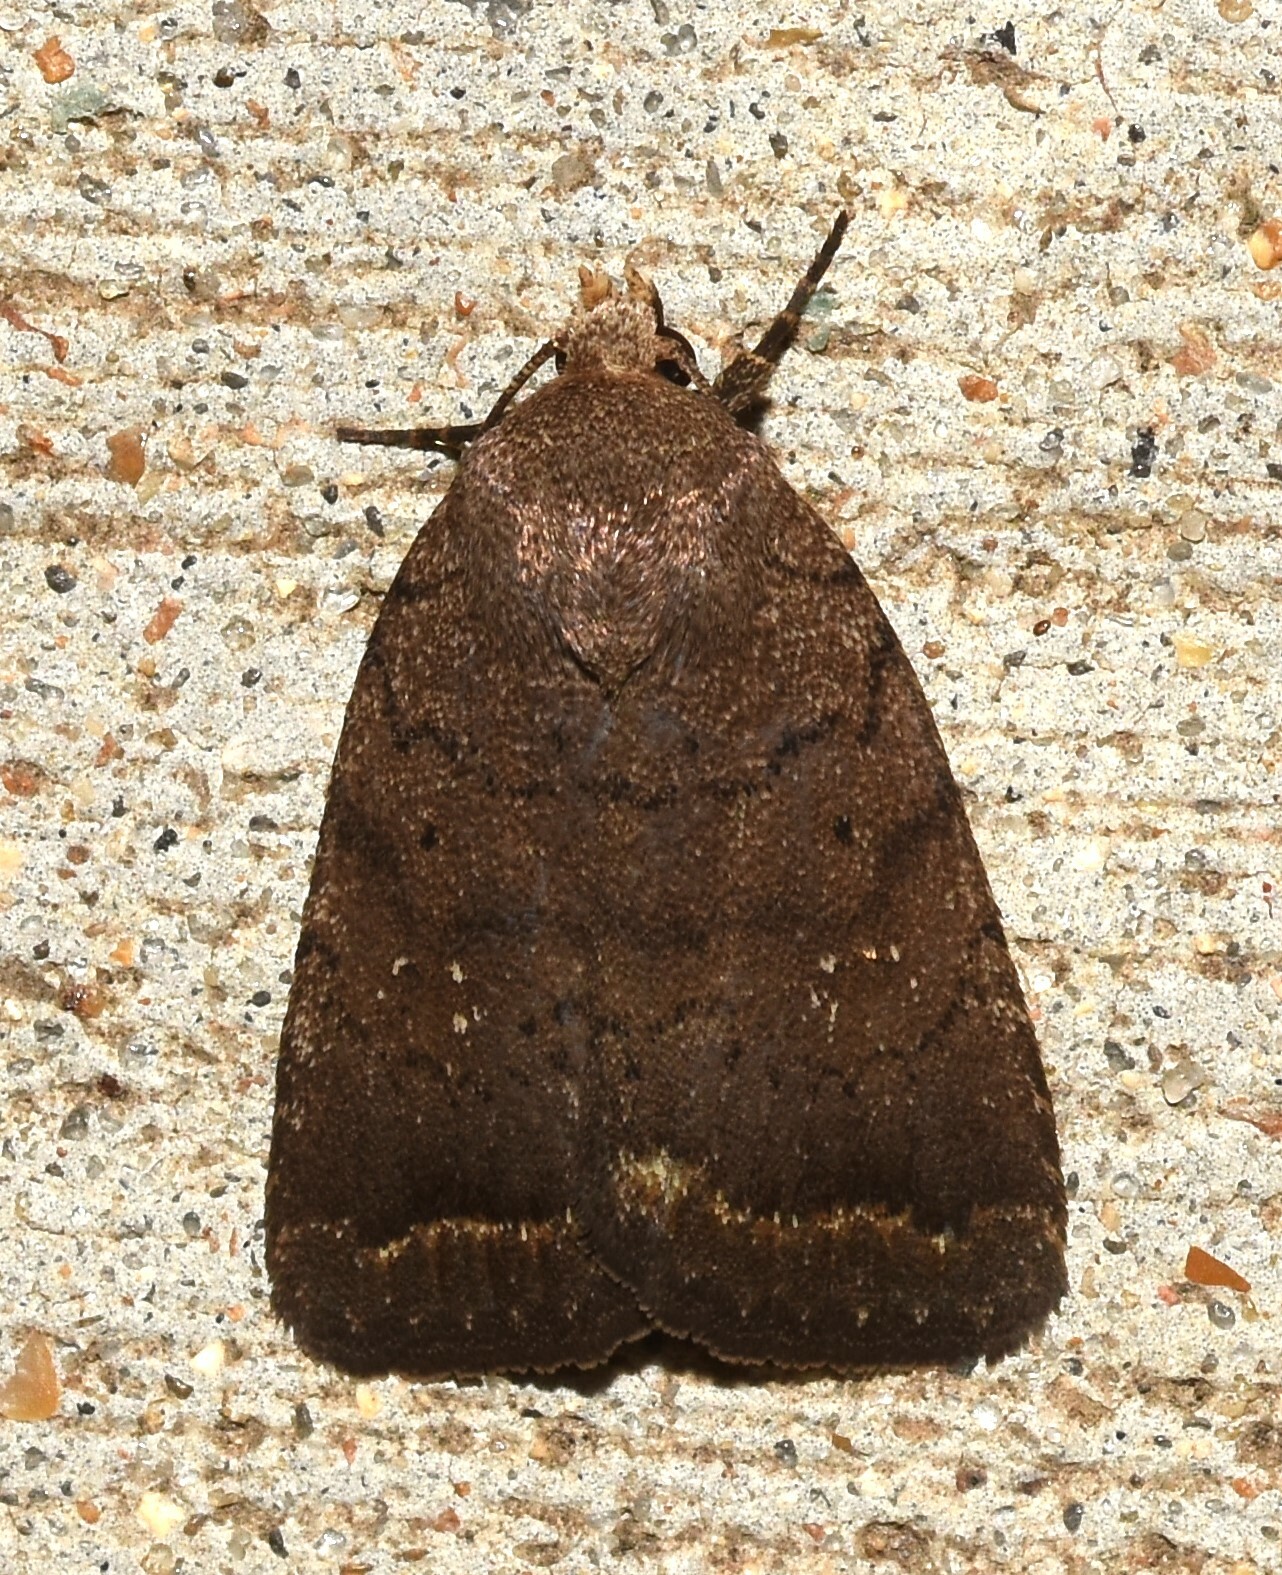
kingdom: Animalia
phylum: Arthropoda
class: Insecta
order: Lepidoptera
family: Noctuidae
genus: Athetis
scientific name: Athetis tarda
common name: Slowpoke moth
